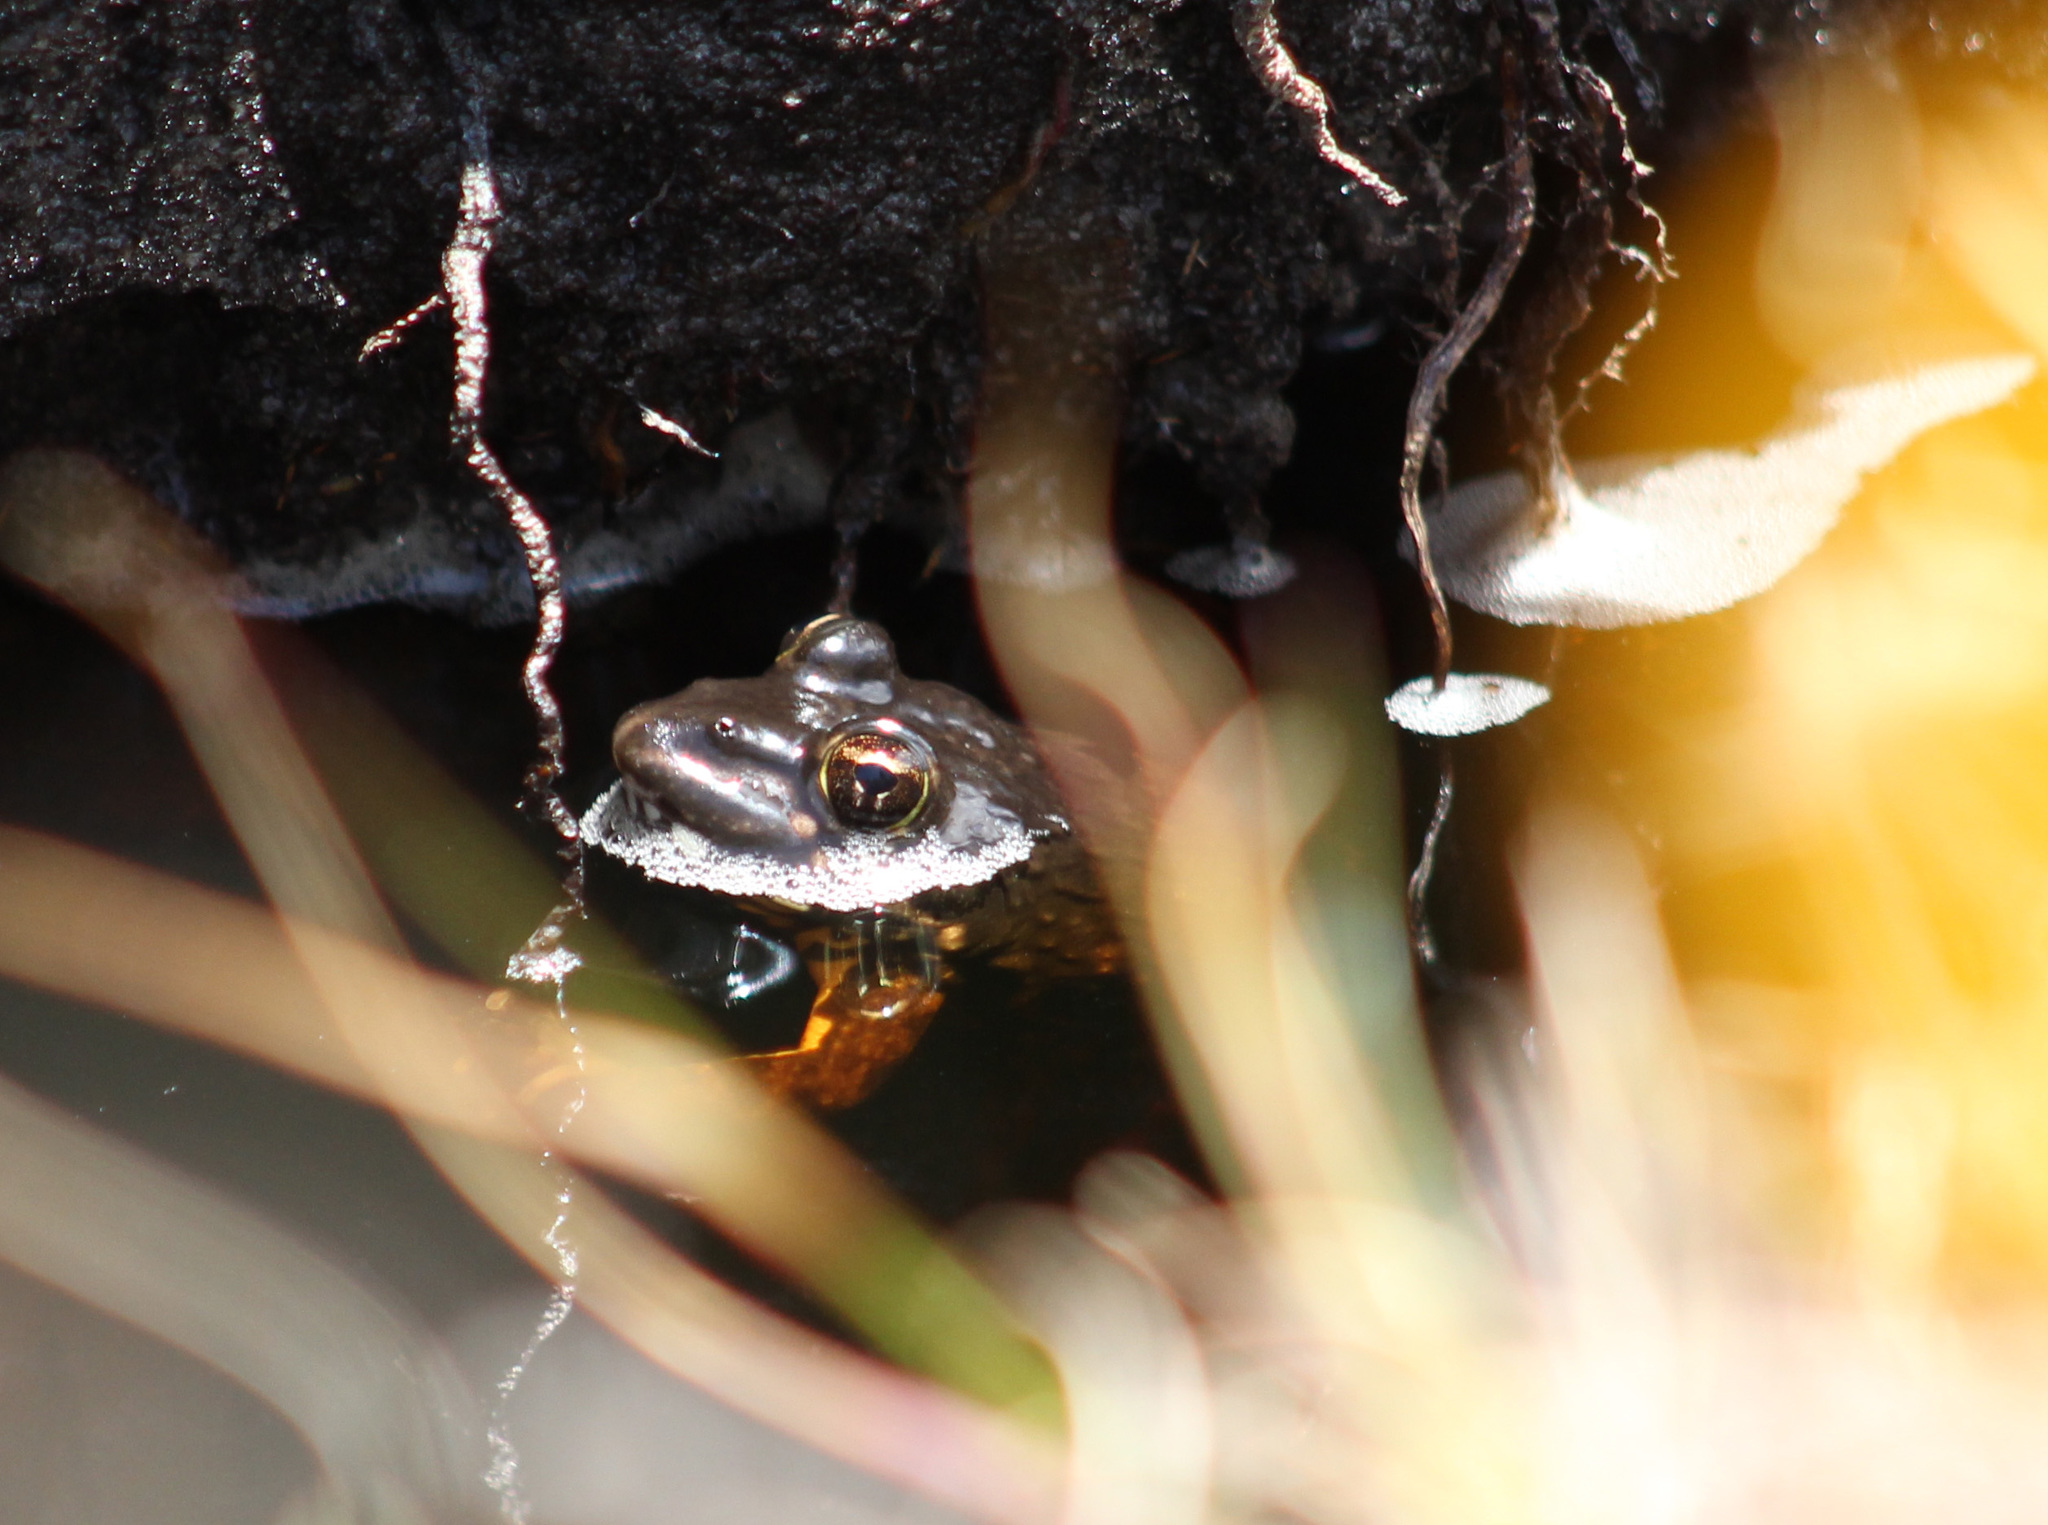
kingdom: Animalia
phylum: Chordata
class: Amphibia
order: Anura
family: Pyxicephalidae
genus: Amietia
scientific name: Amietia fuscigula
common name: Cape rana
